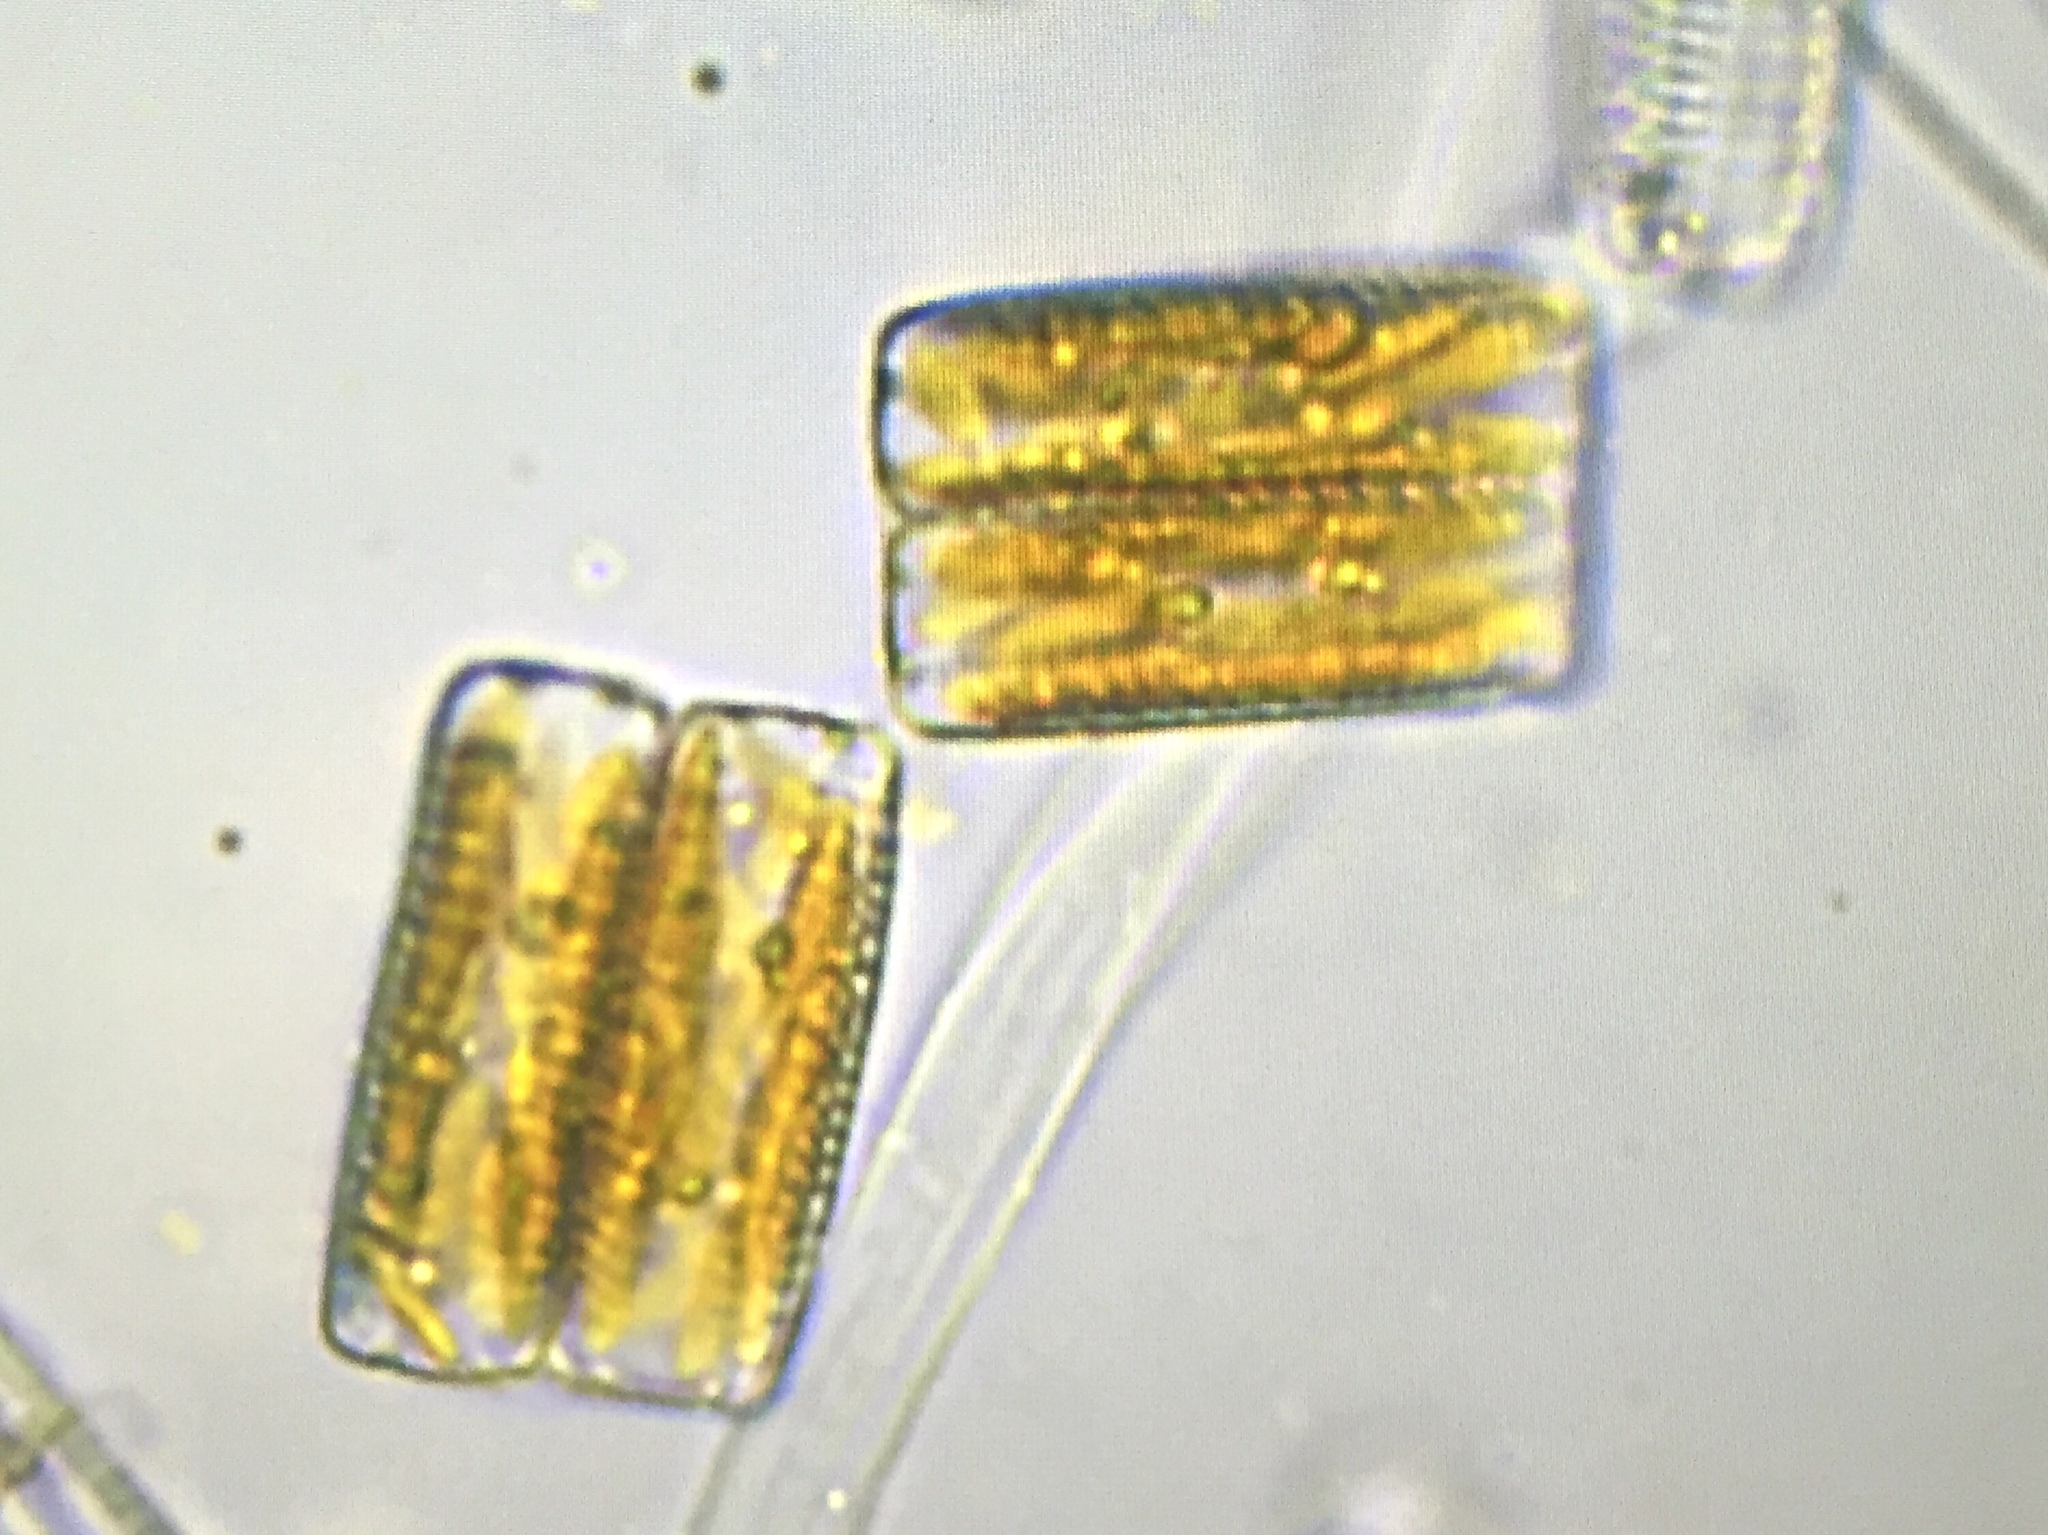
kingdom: Chromista
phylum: Ochrophyta
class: Bacillariophyceae
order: Fragilariales
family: Fragilariaceae
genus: Diatoma
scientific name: Diatoma vulgaris
